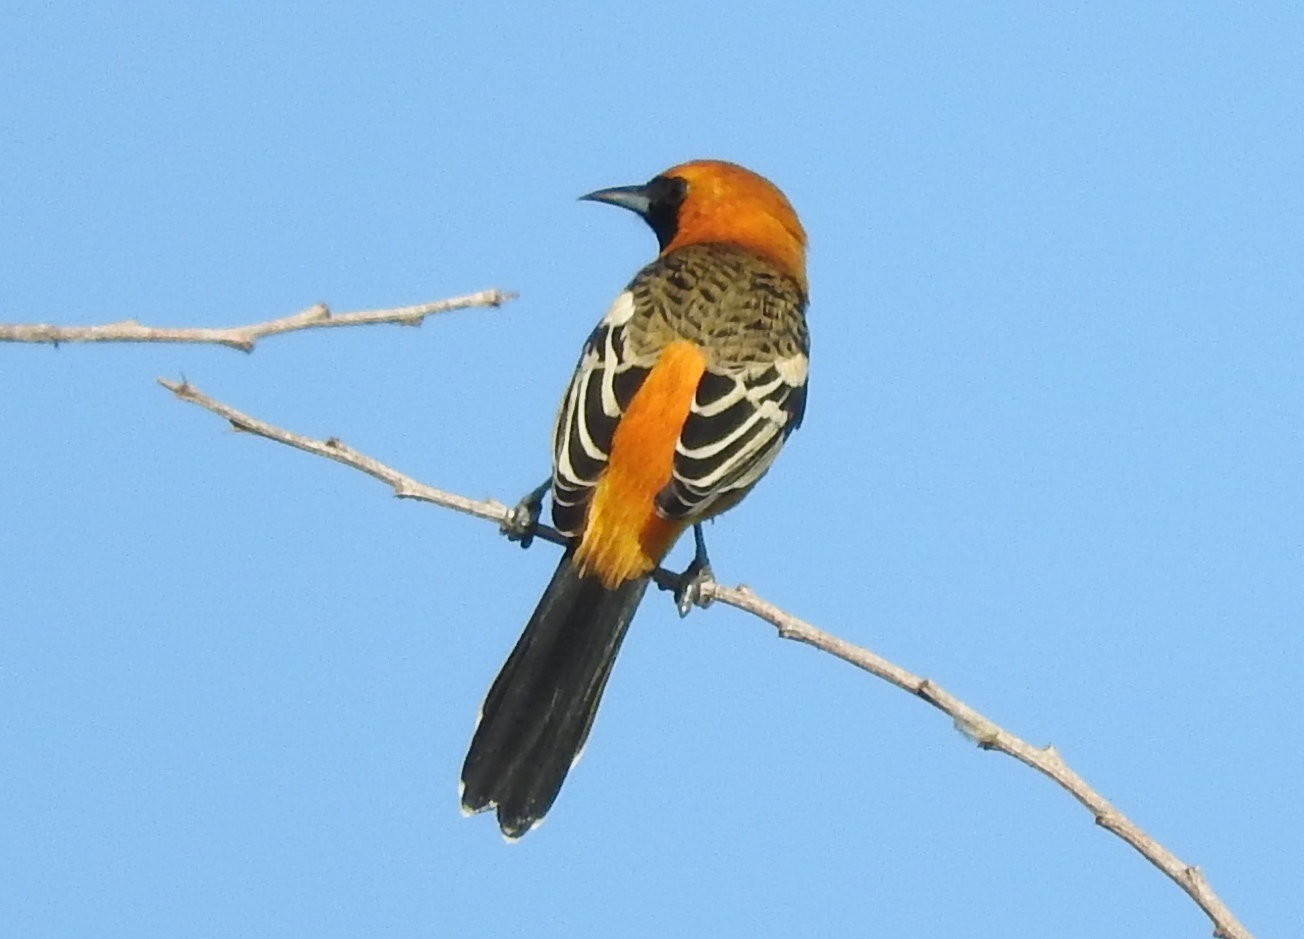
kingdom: Animalia
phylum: Chordata
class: Aves
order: Passeriformes
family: Icteridae
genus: Icterus
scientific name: Icterus cucullatus
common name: Hooded oriole
